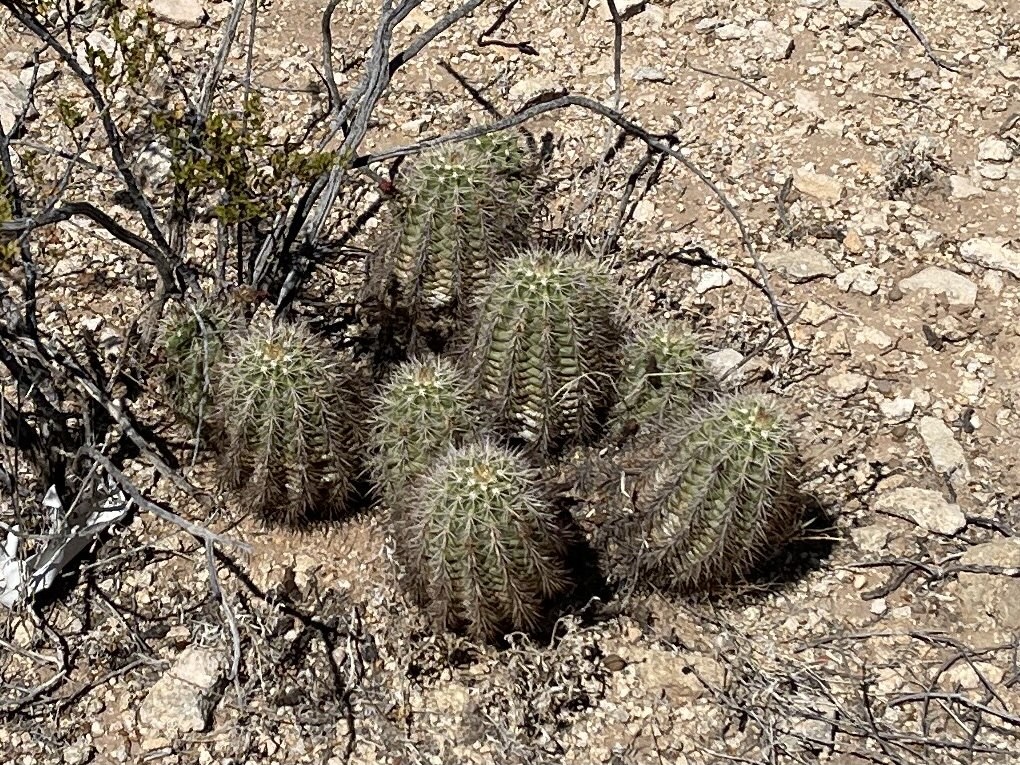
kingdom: Plantae
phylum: Tracheophyta
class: Magnoliopsida
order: Caryophyllales
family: Cactaceae
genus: Echinocereus
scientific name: Echinocereus coccineus
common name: Scarlet hedgehog cactus
